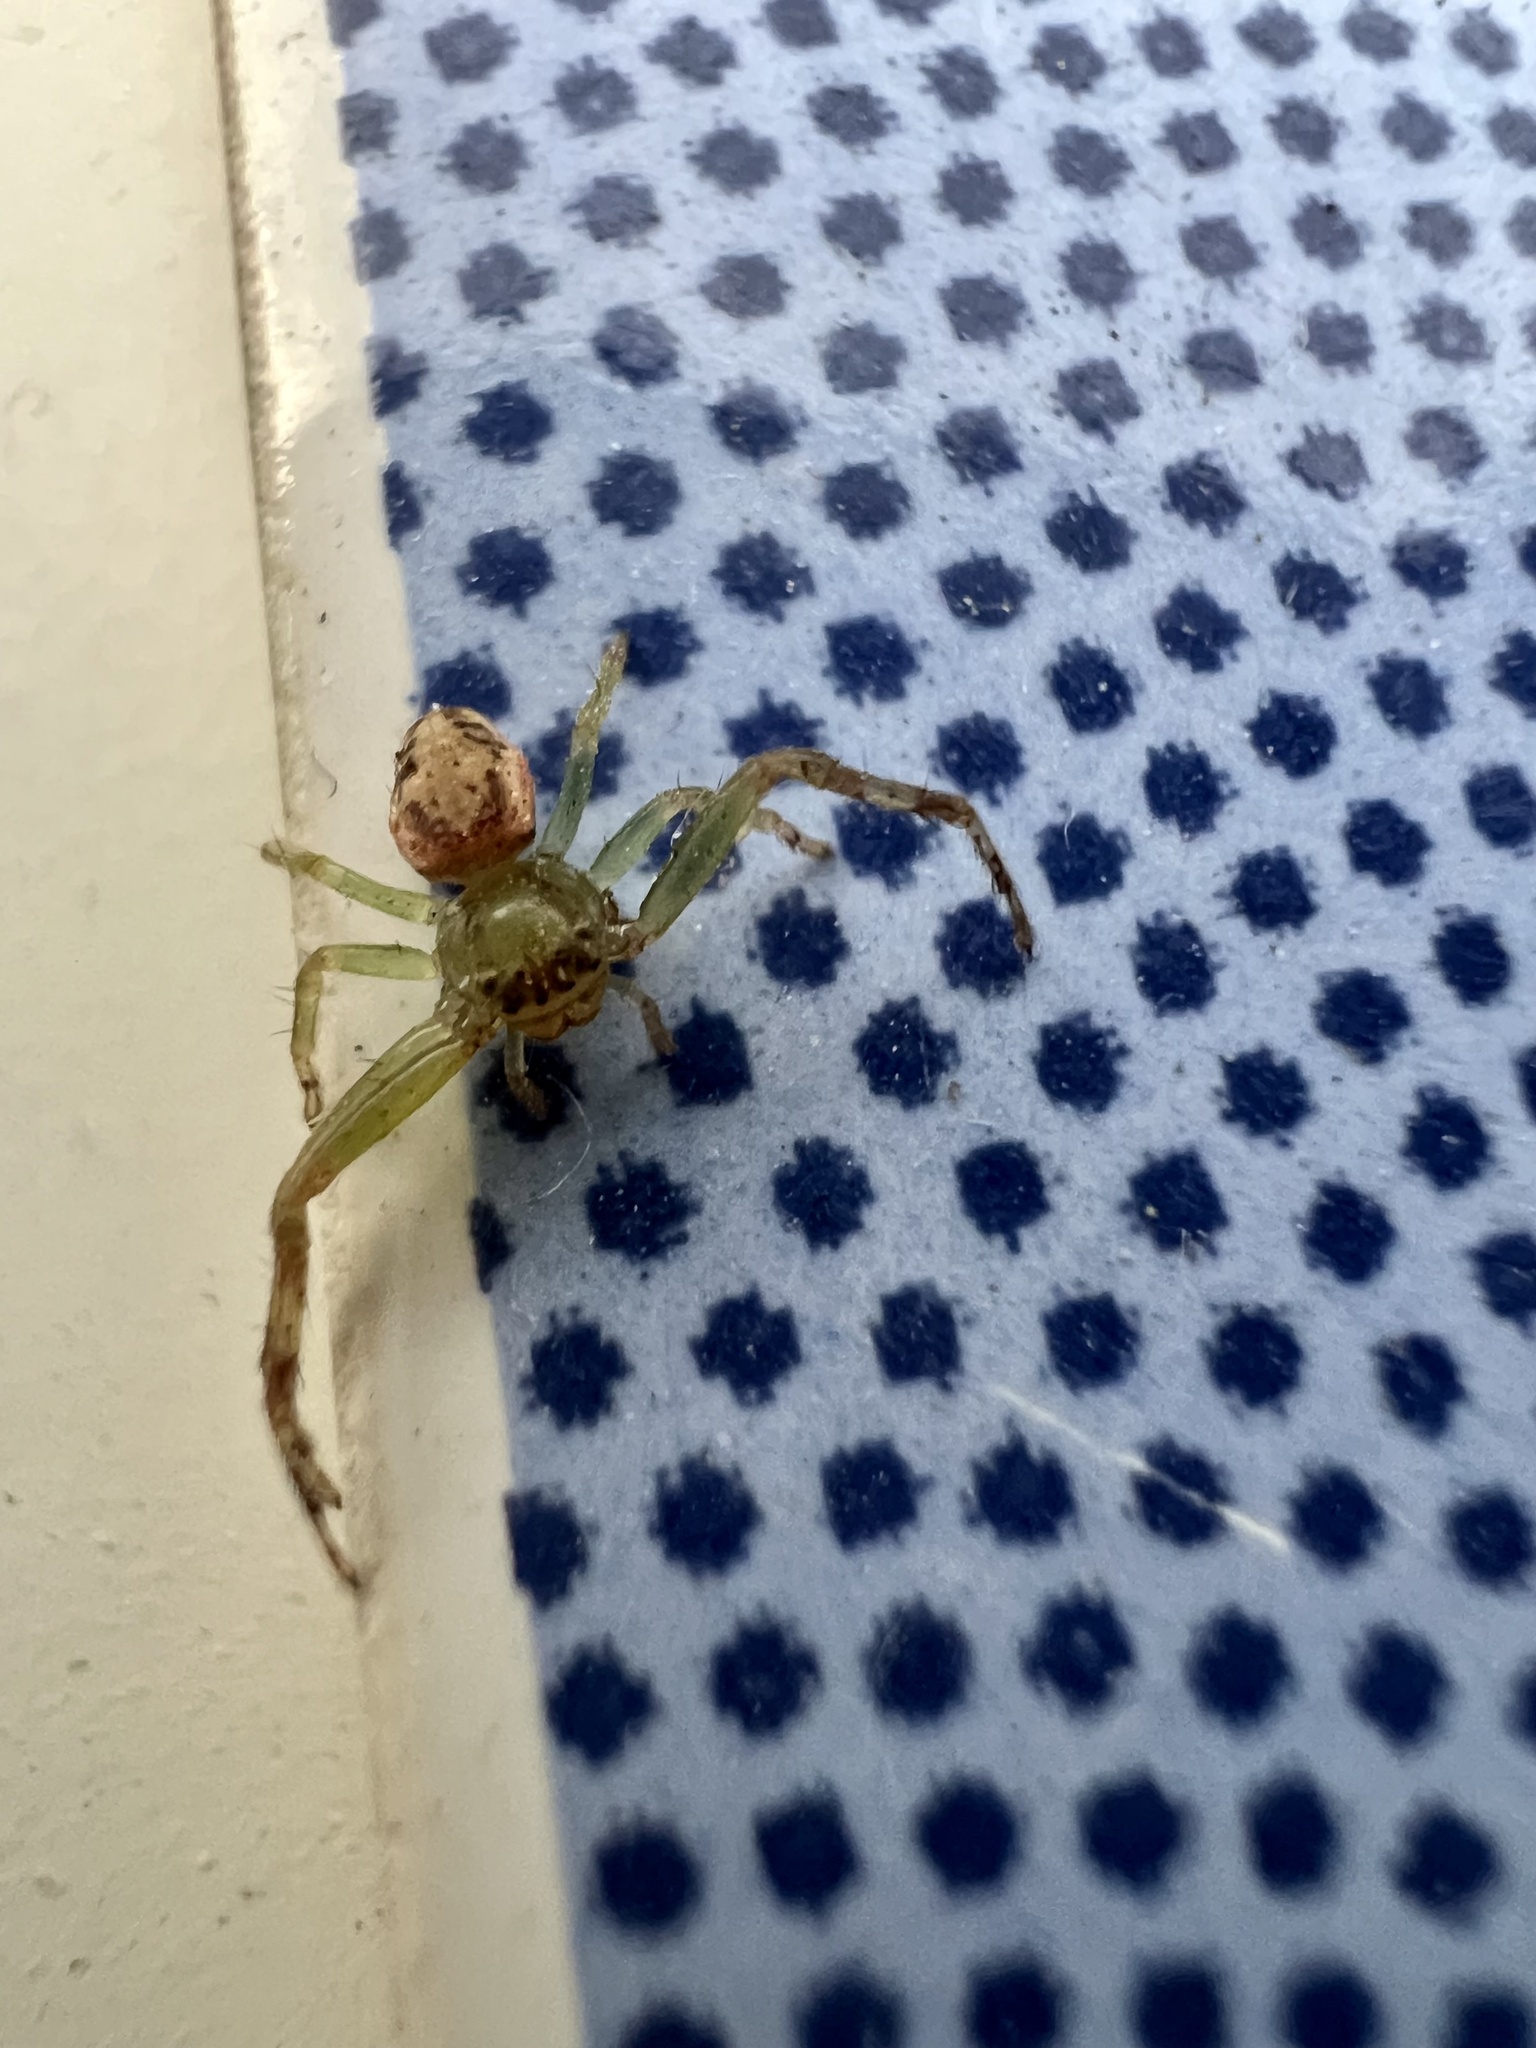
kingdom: Animalia
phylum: Arthropoda
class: Arachnida
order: Araneae
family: Thomisidae
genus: Diaea
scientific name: Diaea ambara
